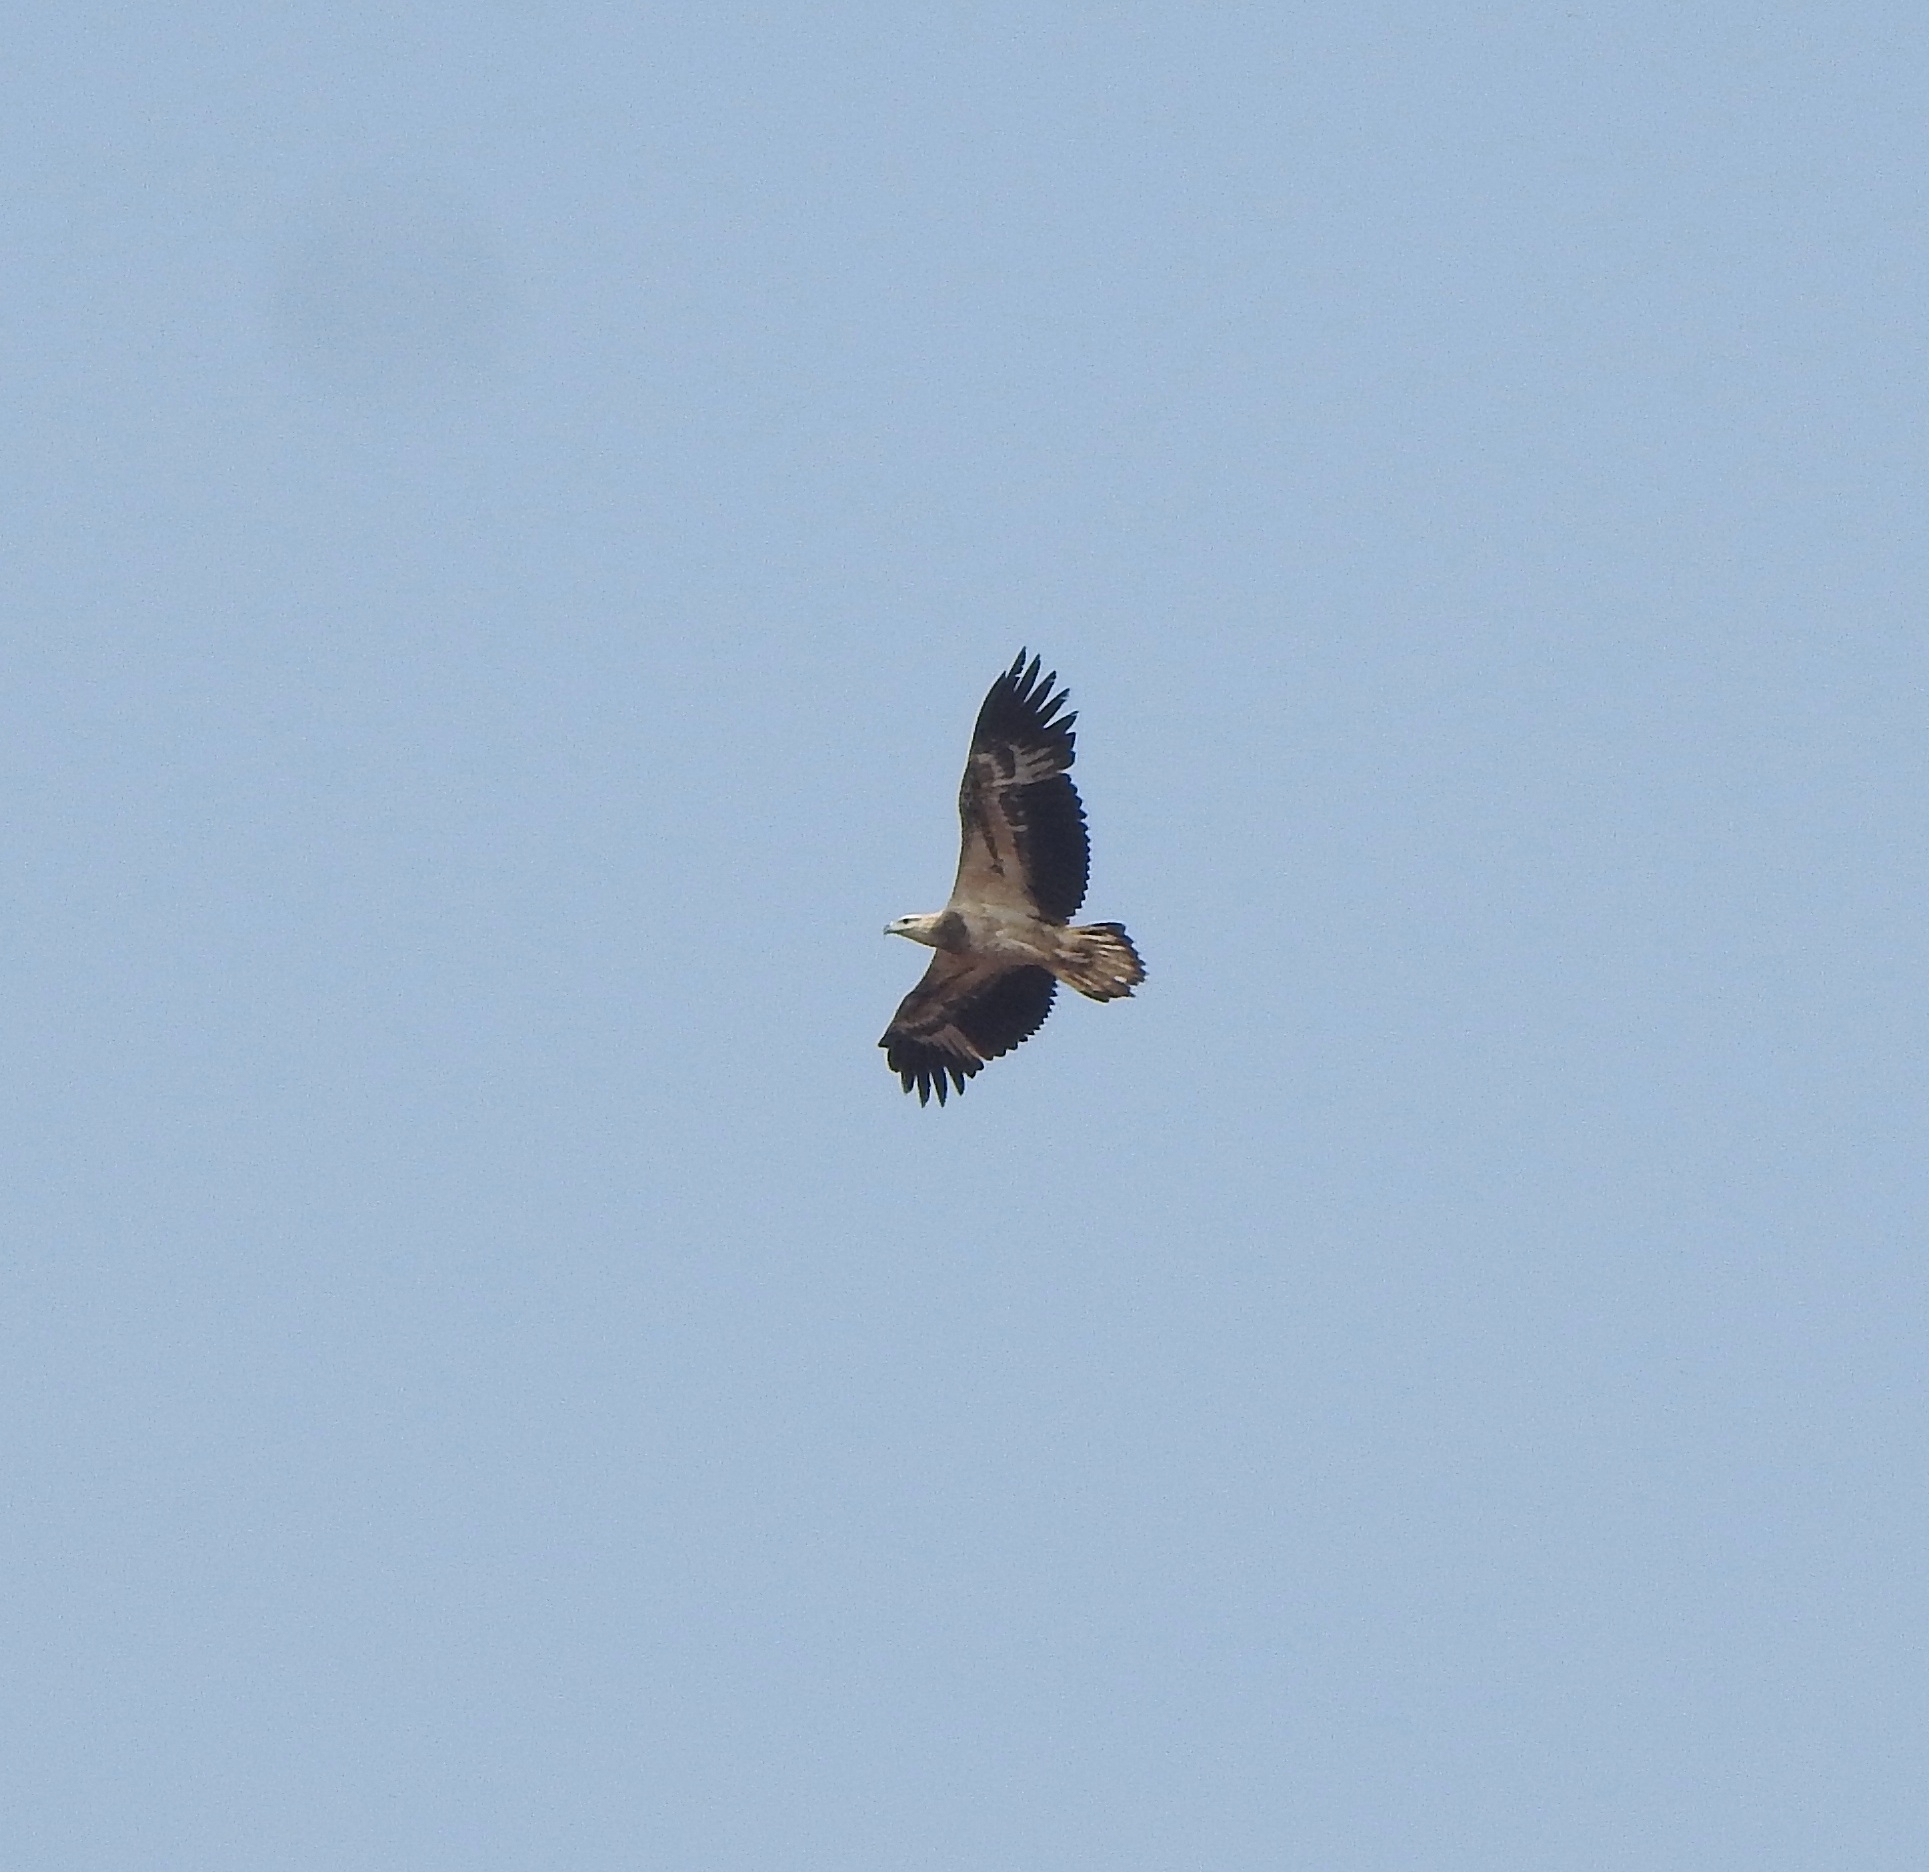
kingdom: Animalia
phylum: Chordata
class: Aves
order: Accipitriformes
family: Accipitridae
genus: Haliaeetus
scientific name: Haliaeetus leucogaster
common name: White-bellied sea eagle
